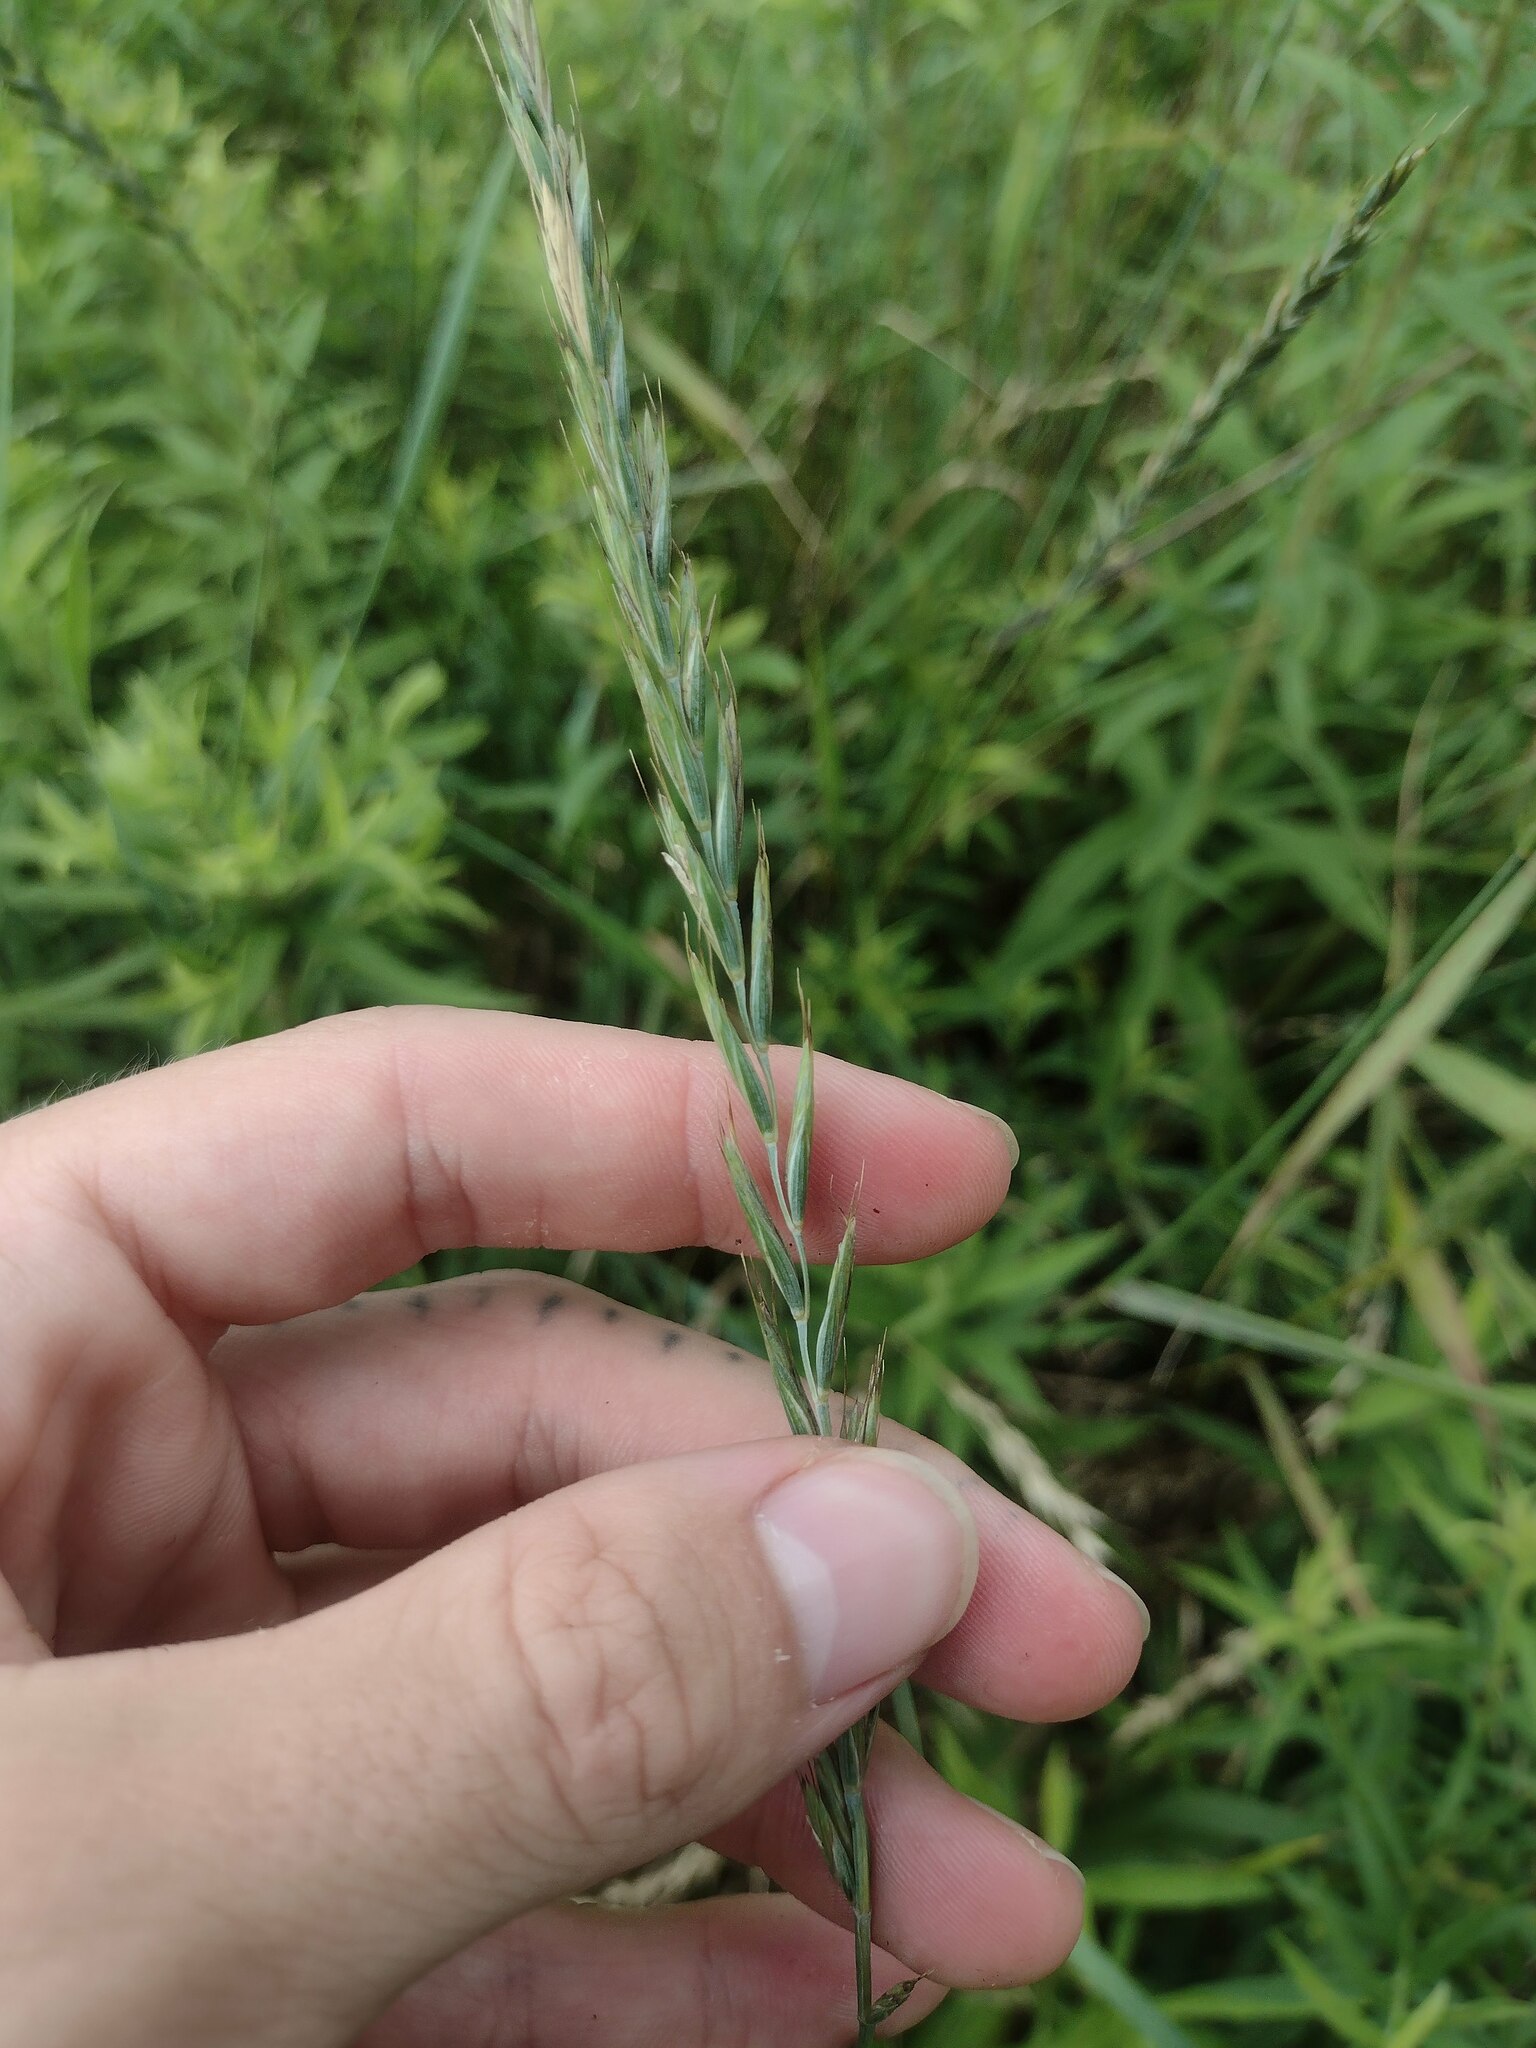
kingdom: Plantae
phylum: Tracheophyta
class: Liliopsida
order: Poales
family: Poaceae
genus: Elymus
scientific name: Elymus repens
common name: Quackgrass
